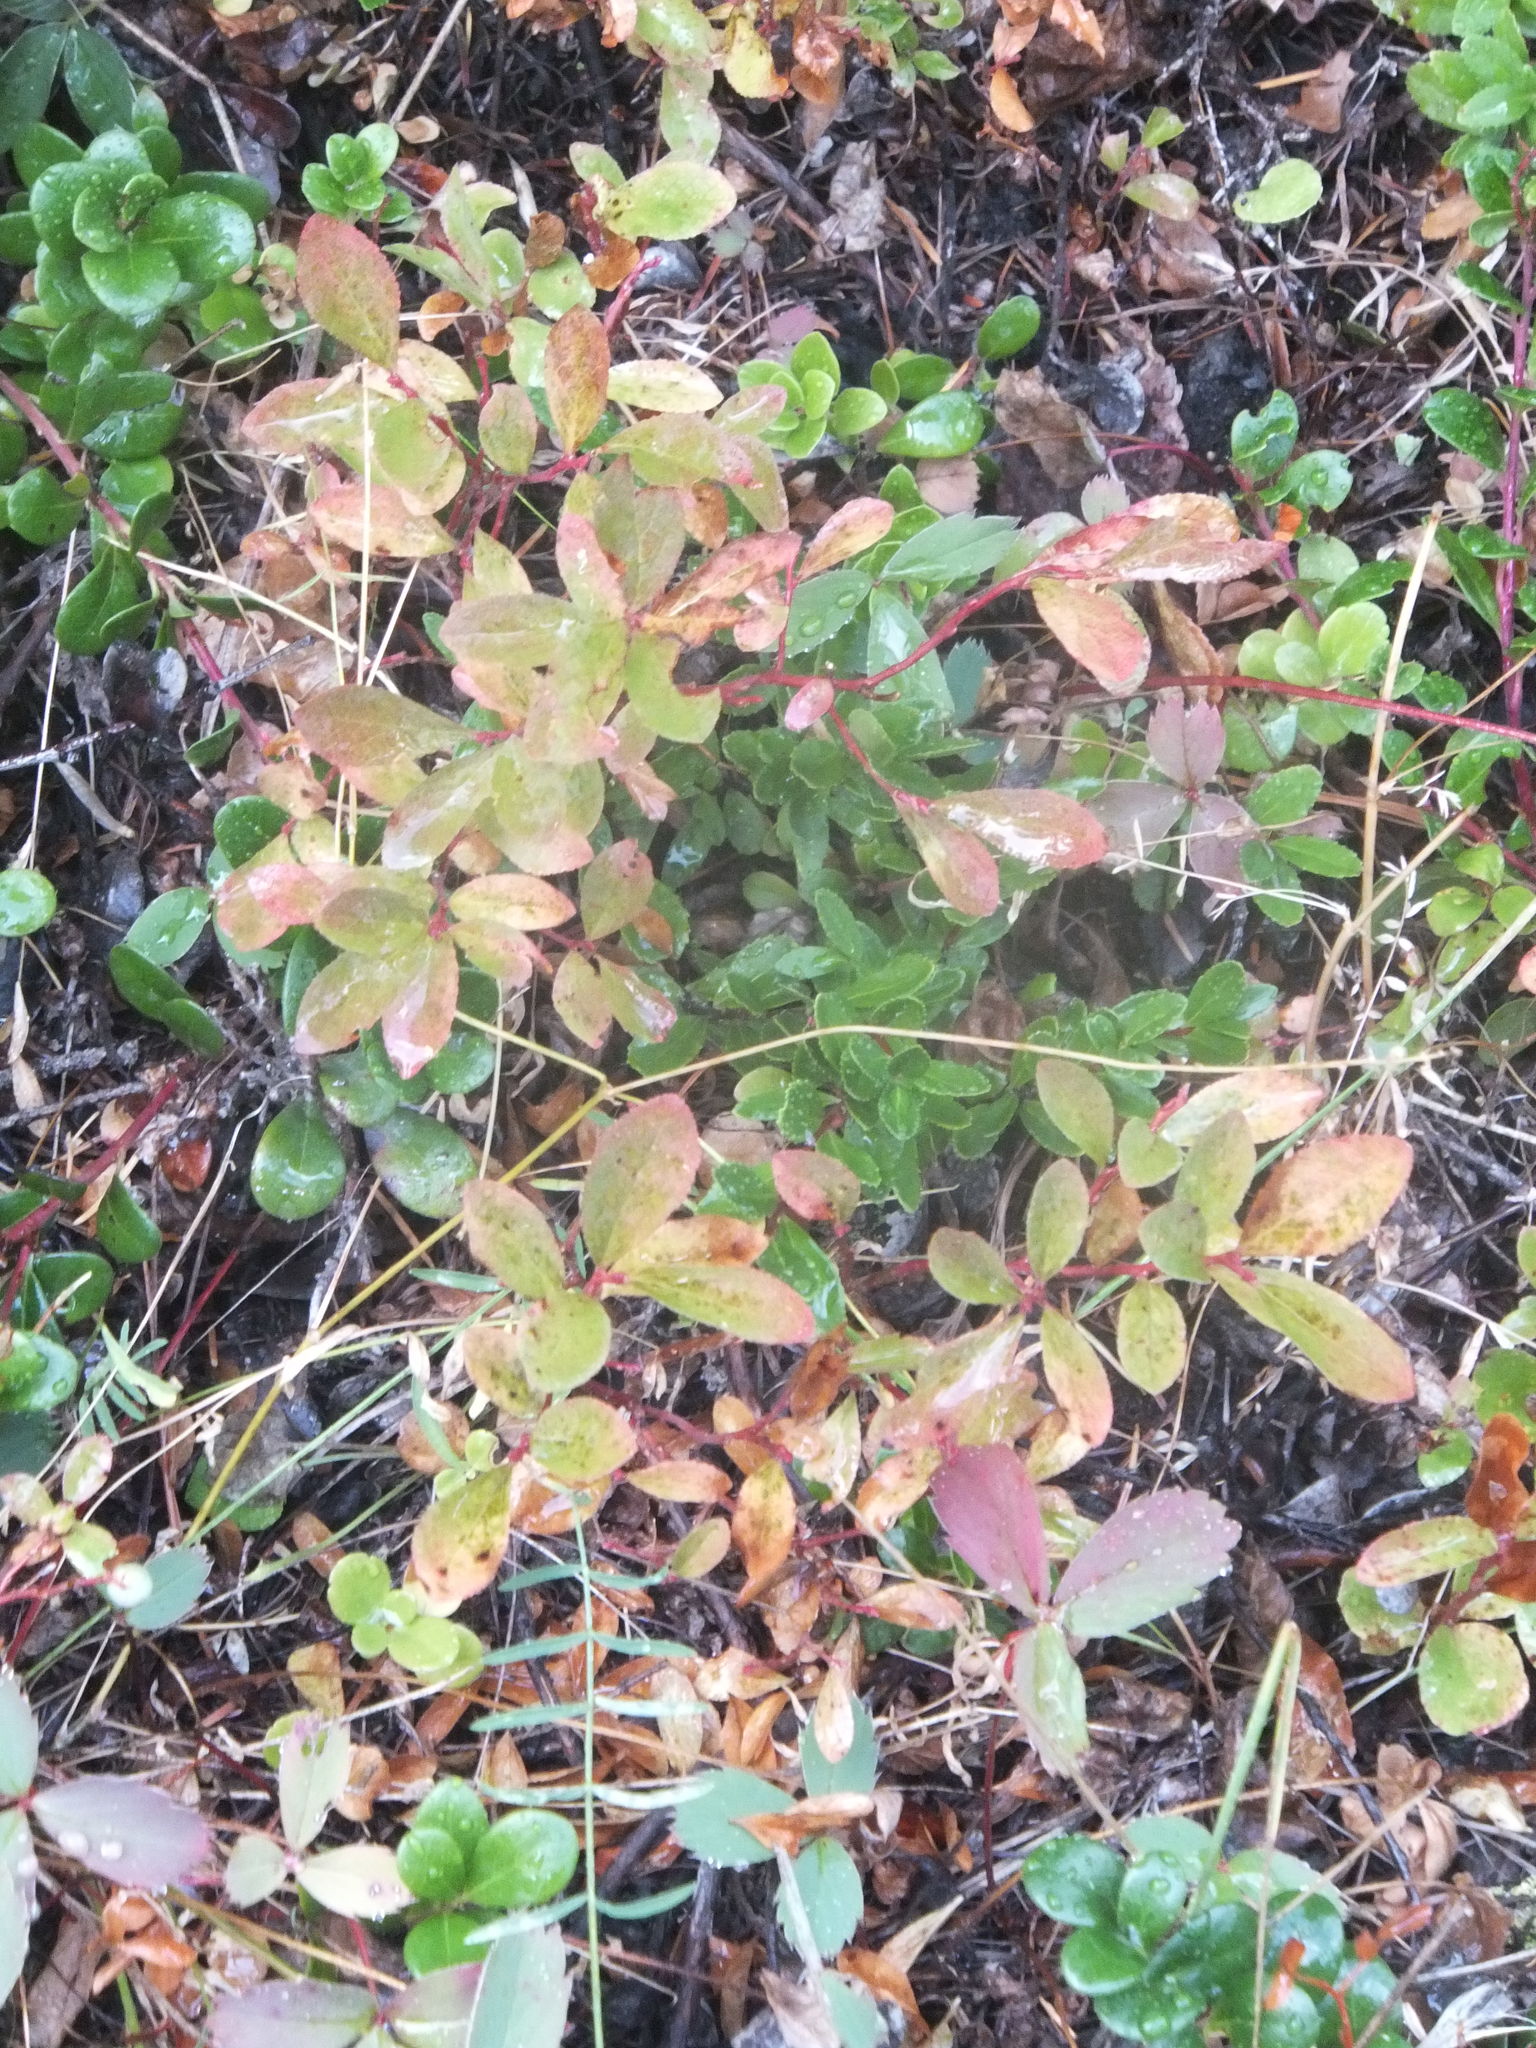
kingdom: Plantae
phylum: Tracheophyta
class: Magnoliopsida
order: Ericales
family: Ericaceae
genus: Vaccinium
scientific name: Vaccinium cespitosum
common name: Dwarf bilberry
